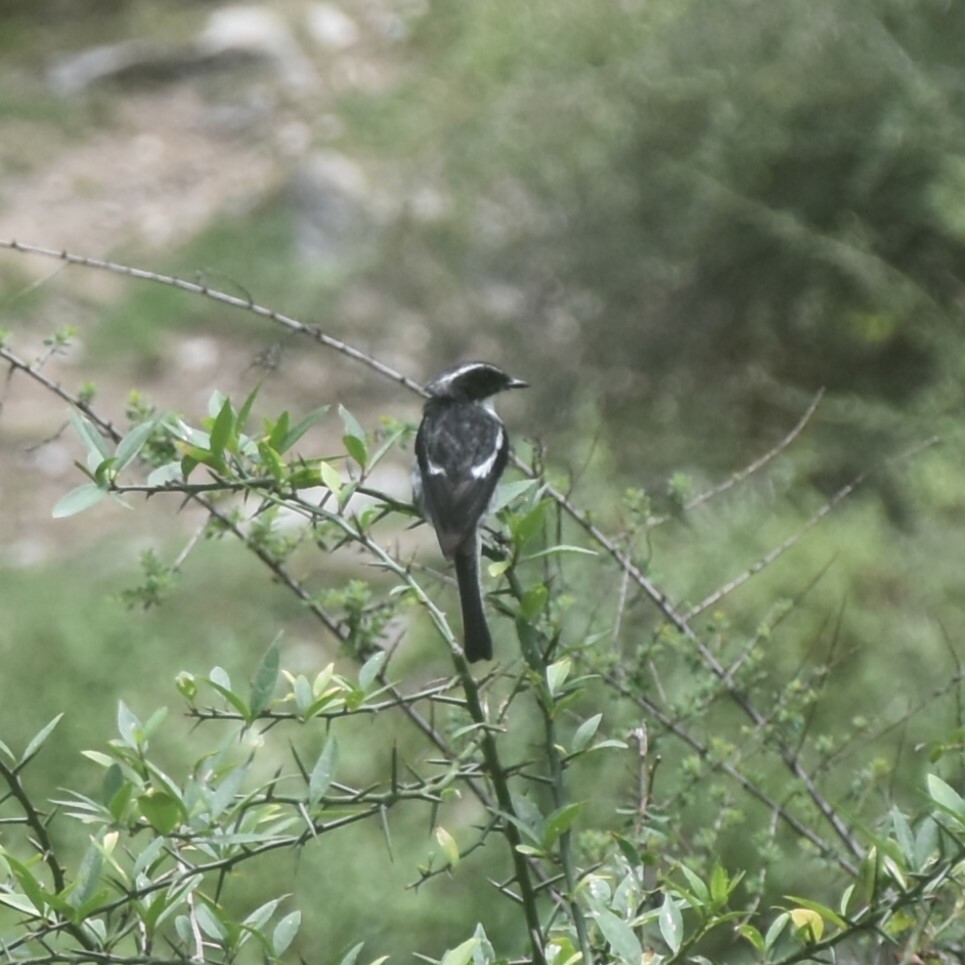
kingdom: Animalia
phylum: Chordata
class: Aves
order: Passeriformes
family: Muscicapidae
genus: Saxicola
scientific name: Saxicola ferreus
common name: Grey bush chat
